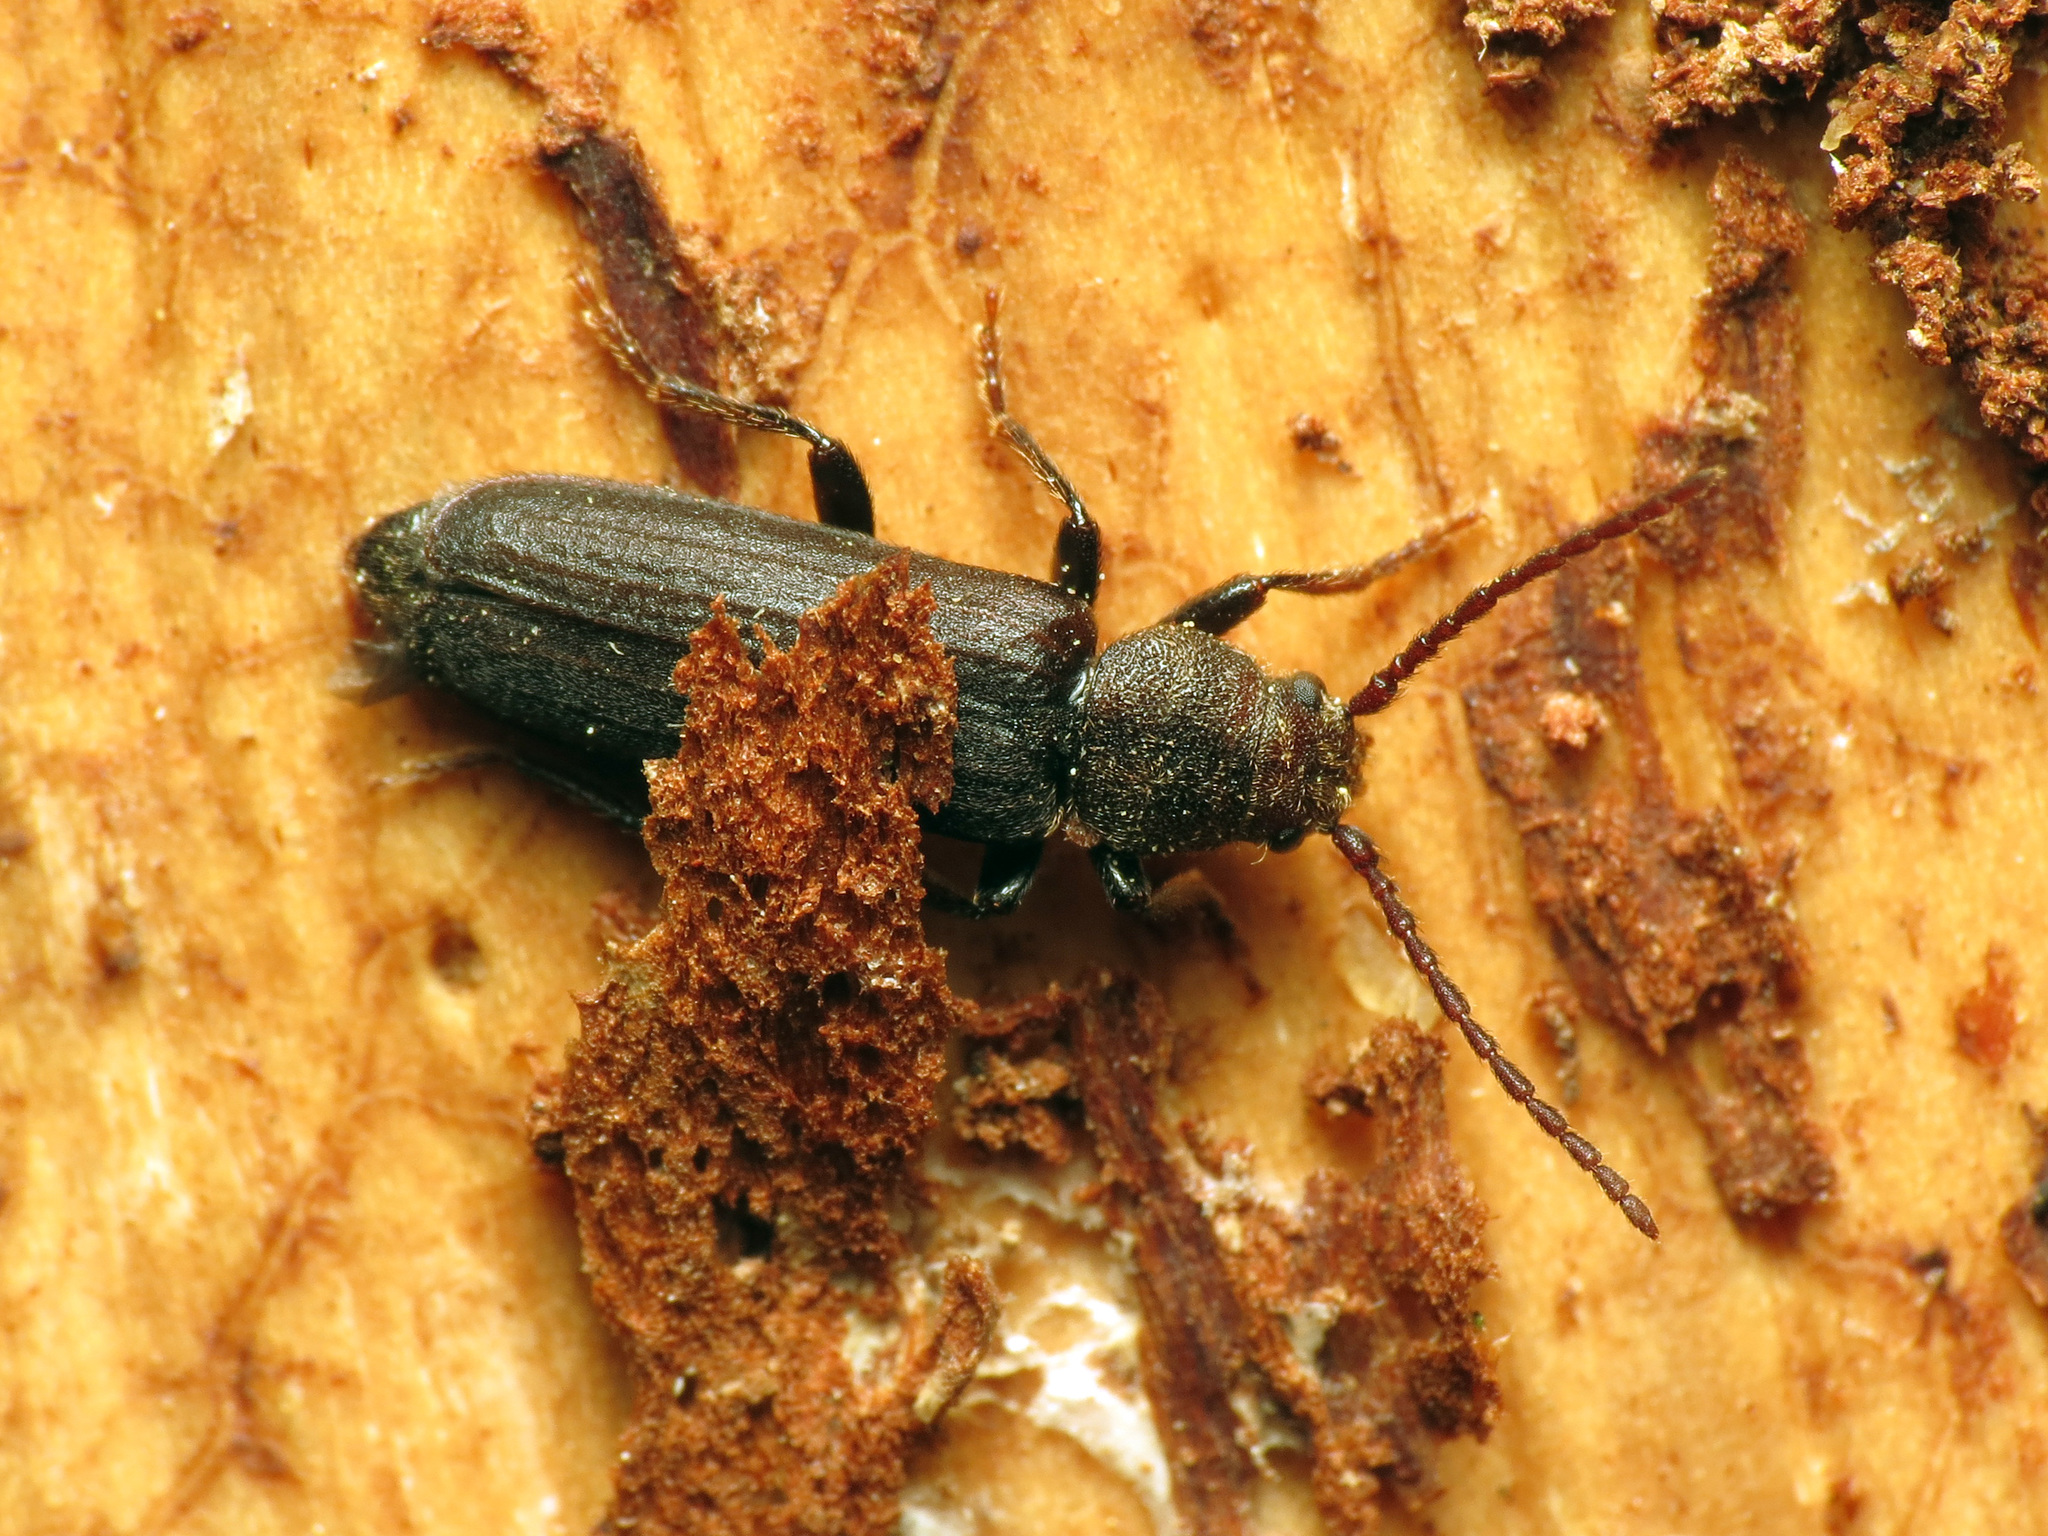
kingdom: Animalia
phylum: Arthropoda
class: Insecta
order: Coleoptera
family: Cerambycidae
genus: Asemum
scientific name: Asemum striatum
